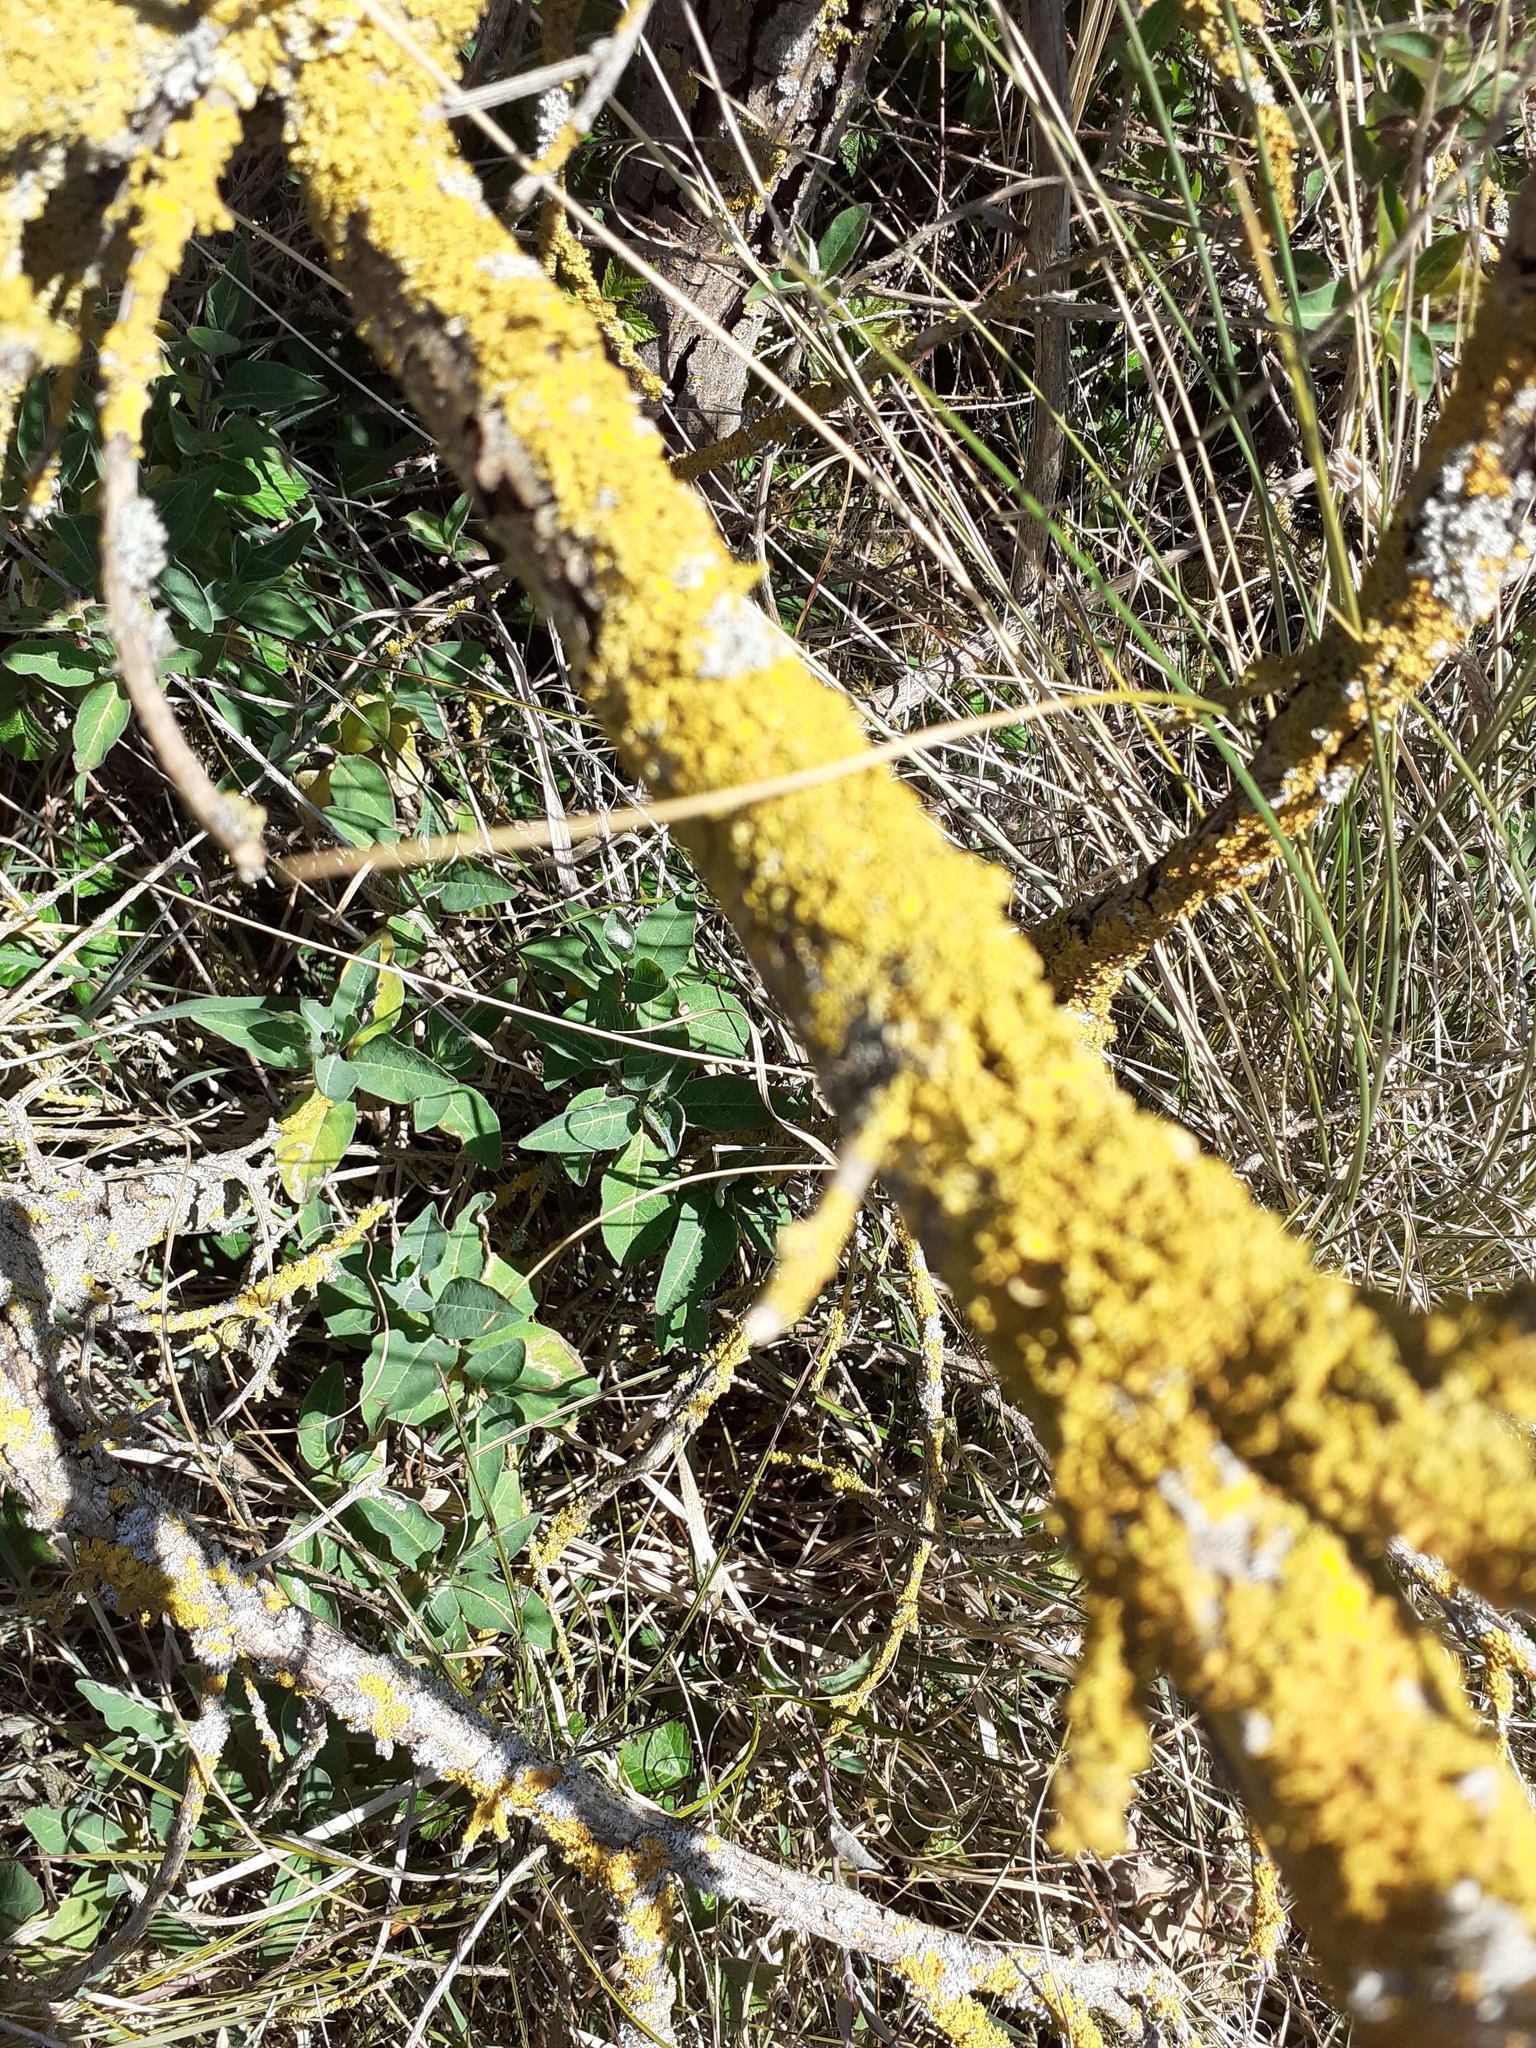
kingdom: Fungi
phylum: Ascomycota
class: Lecanoromycetes
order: Teloschistales
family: Teloschistaceae
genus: Xanthoria
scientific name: Xanthoria parietina
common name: Common orange lichen
